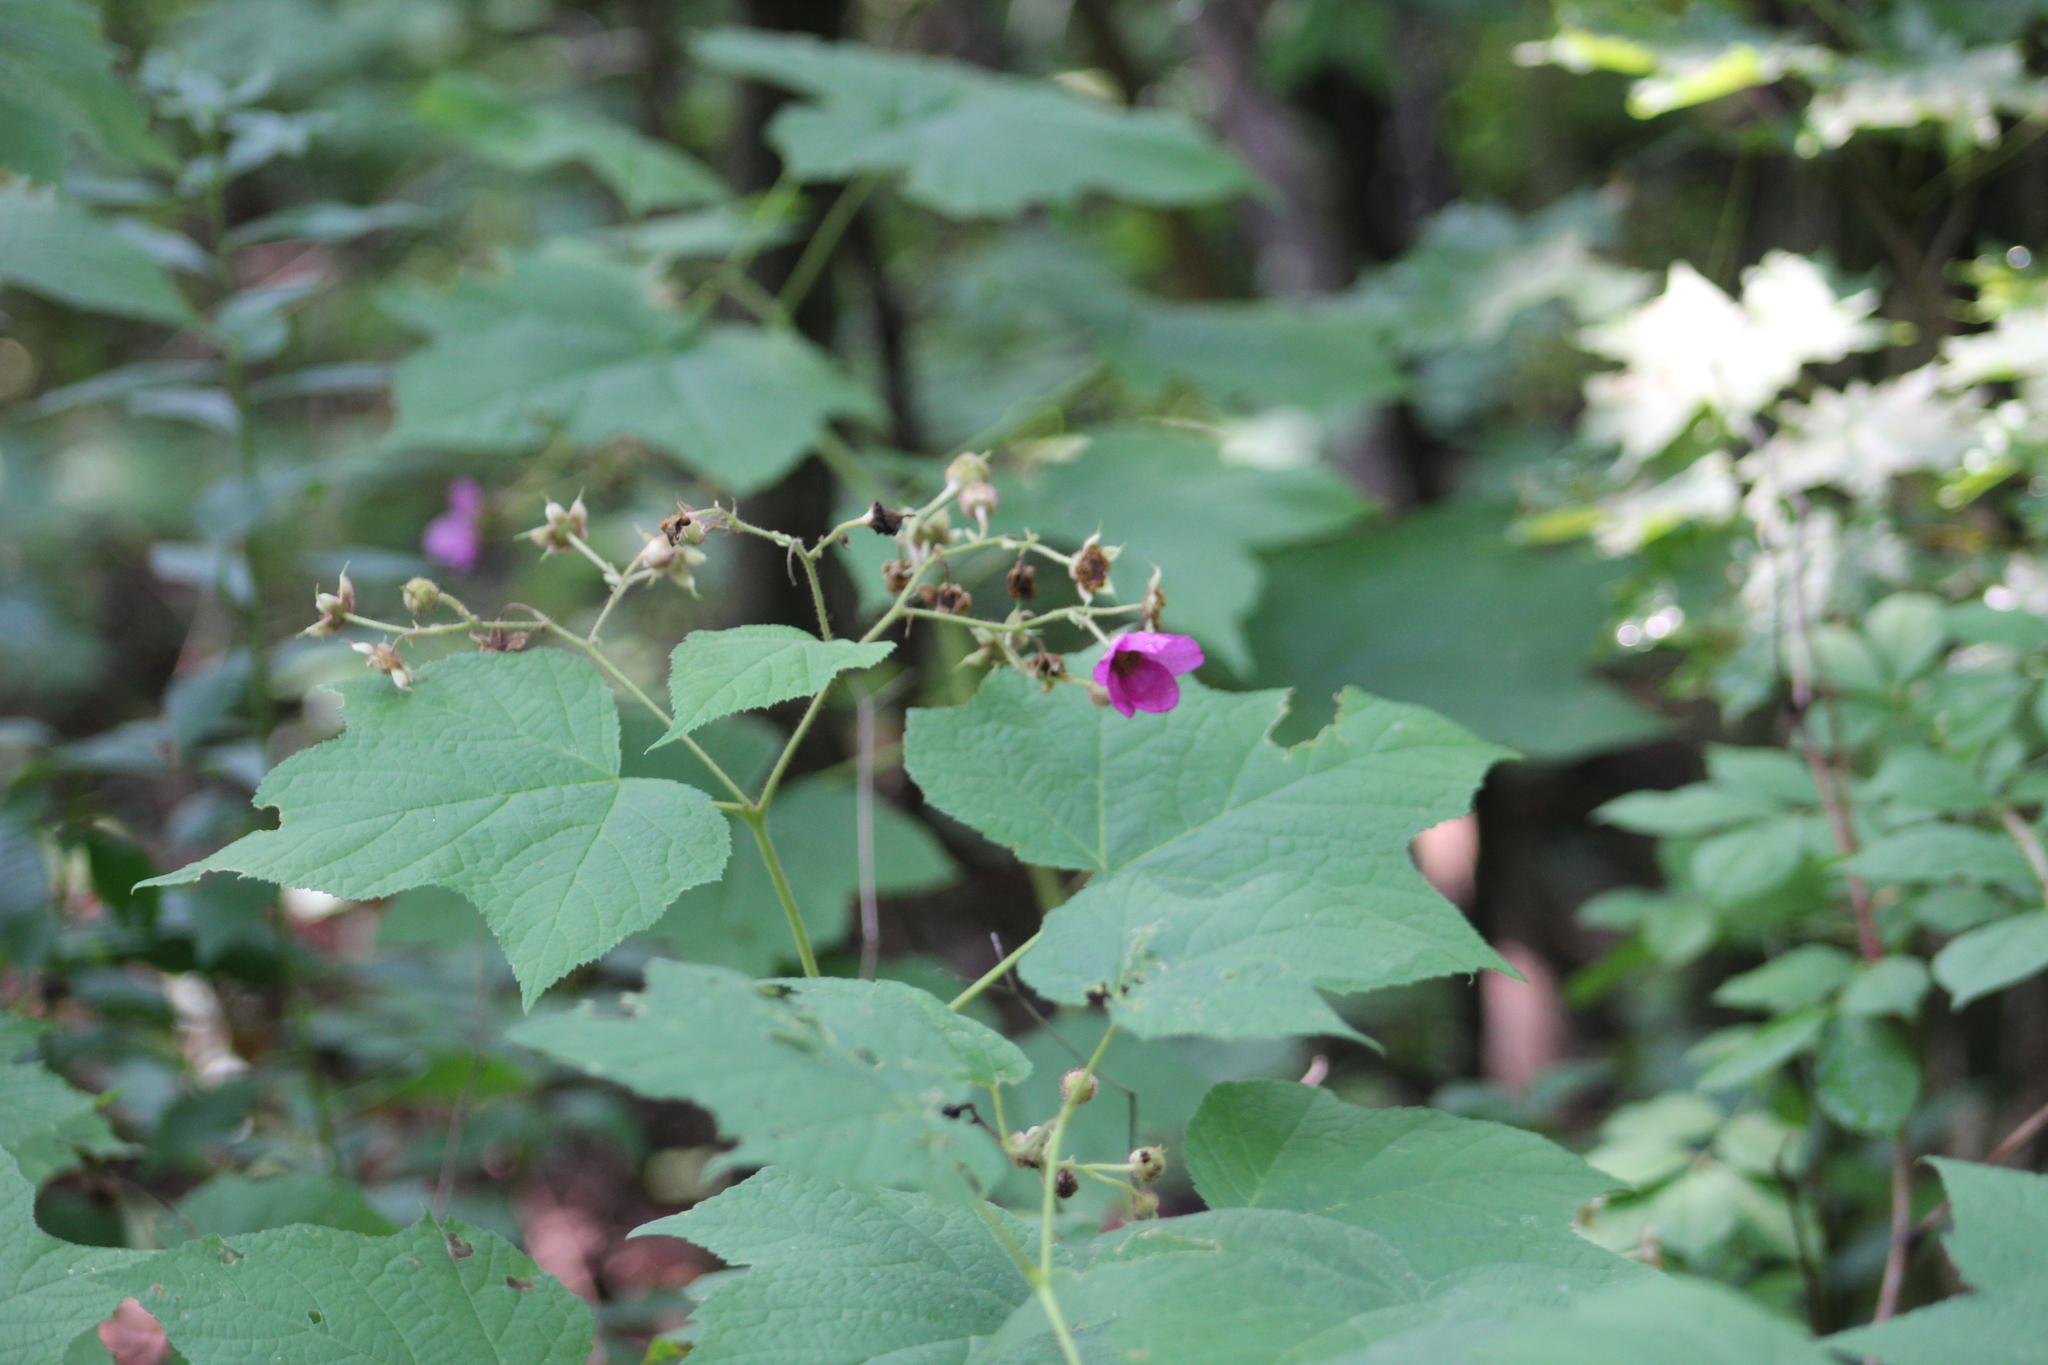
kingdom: Plantae
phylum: Tracheophyta
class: Magnoliopsida
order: Rosales
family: Rosaceae
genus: Rubus
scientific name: Rubus odoratus
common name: Purple-flowered raspberry
